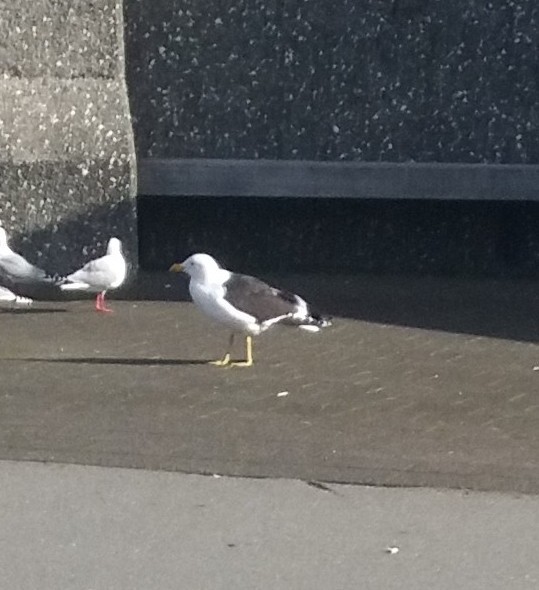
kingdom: Animalia
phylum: Chordata
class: Aves
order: Charadriiformes
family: Laridae
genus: Larus
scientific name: Larus dominicanus
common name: Kelp gull
